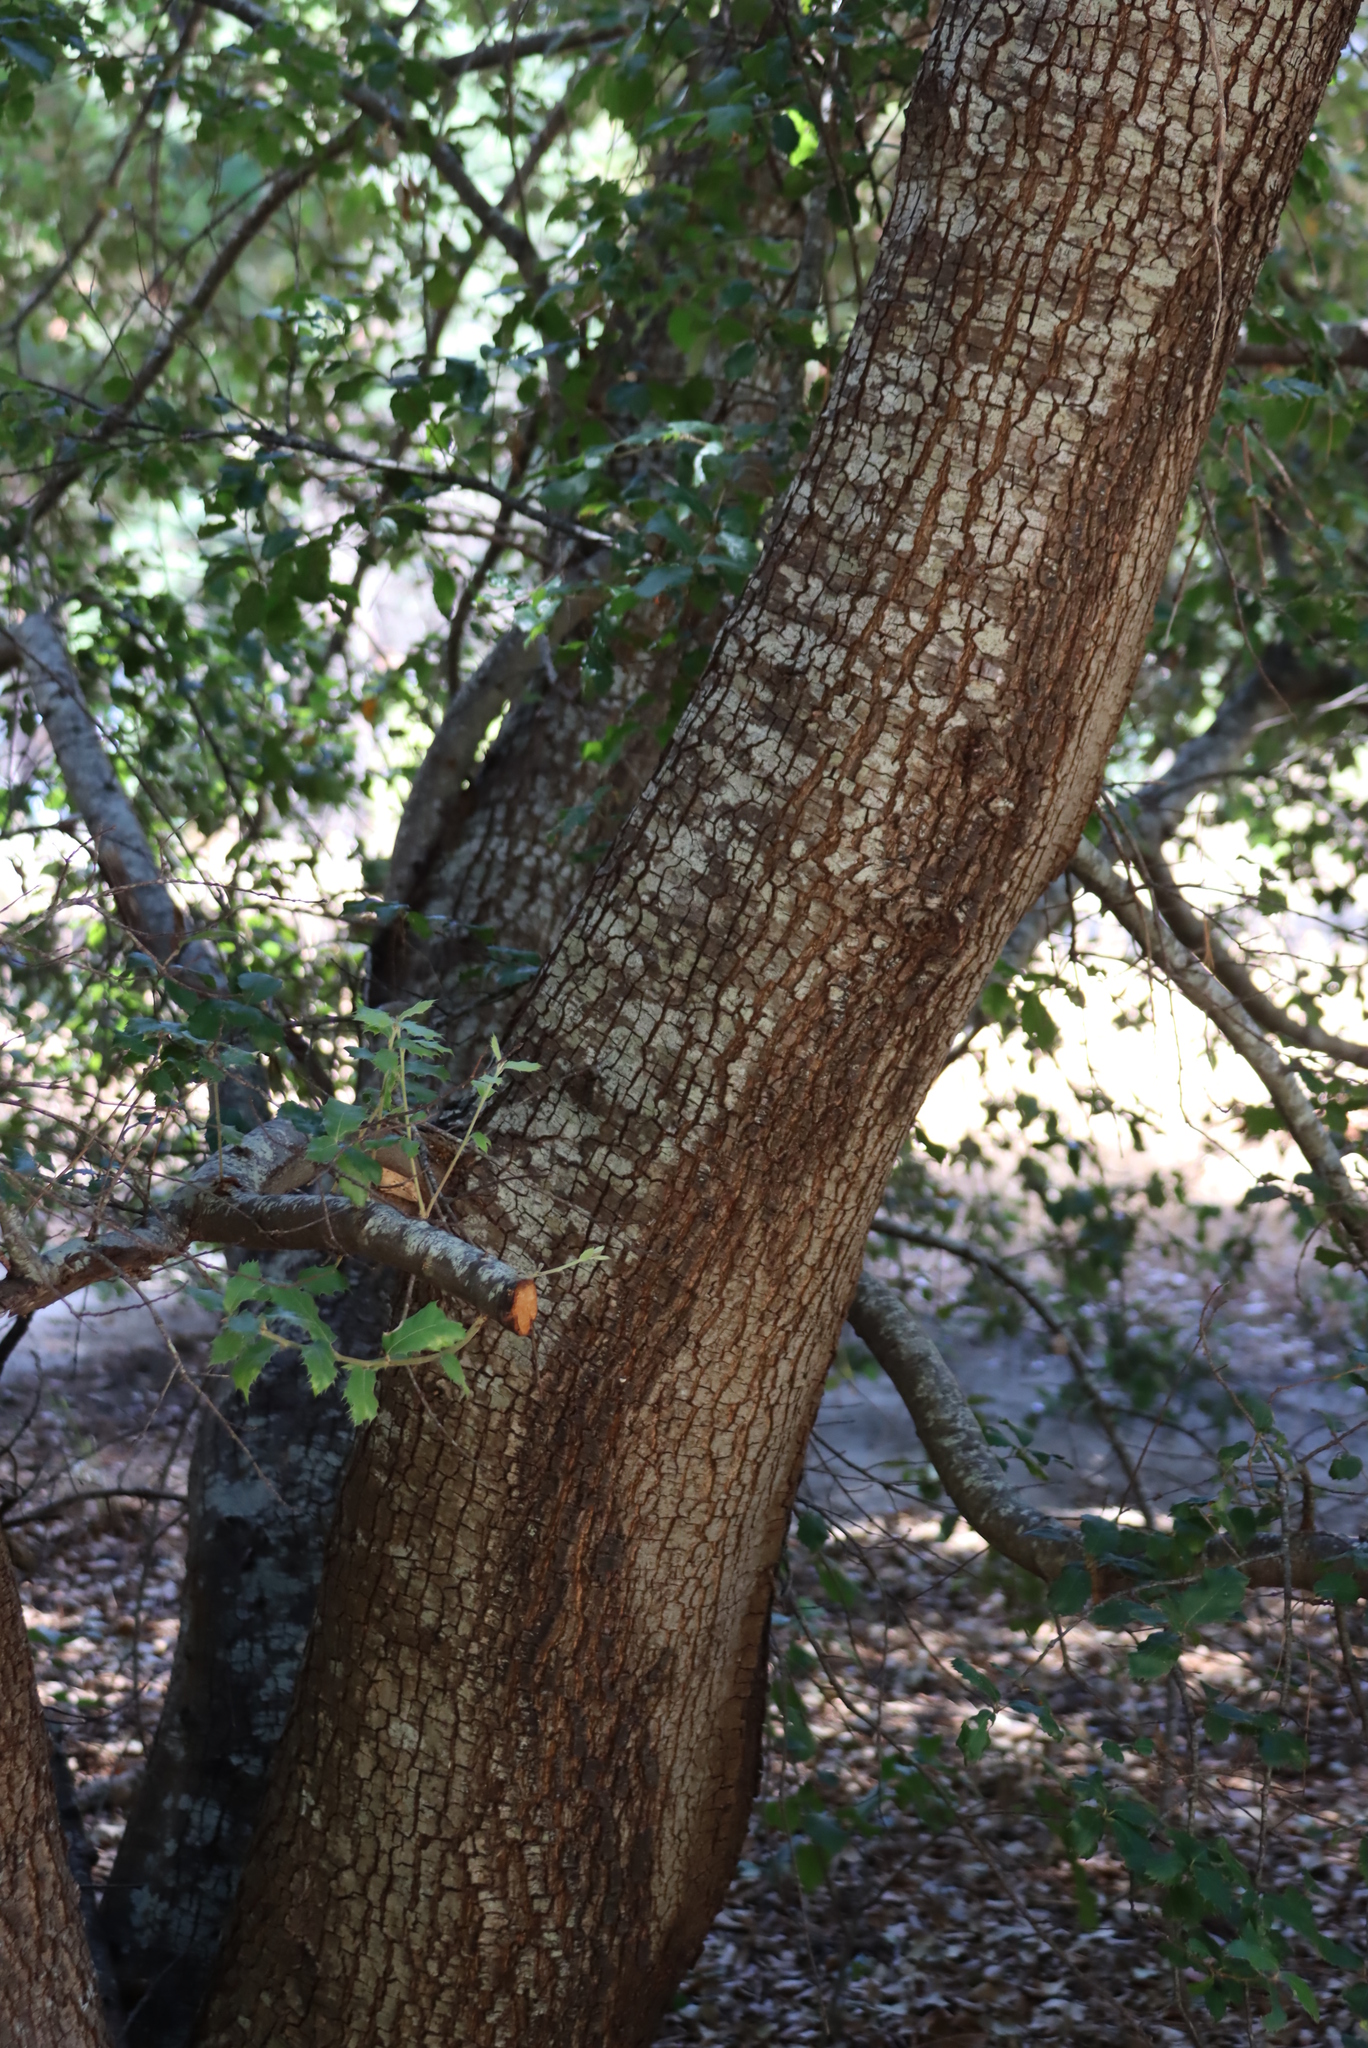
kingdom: Plantae
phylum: Tracheophyta
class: Magnoliopsida
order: Fagales
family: Fagaceae
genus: Quercus
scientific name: Quercus ilex
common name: Evergreen oak
